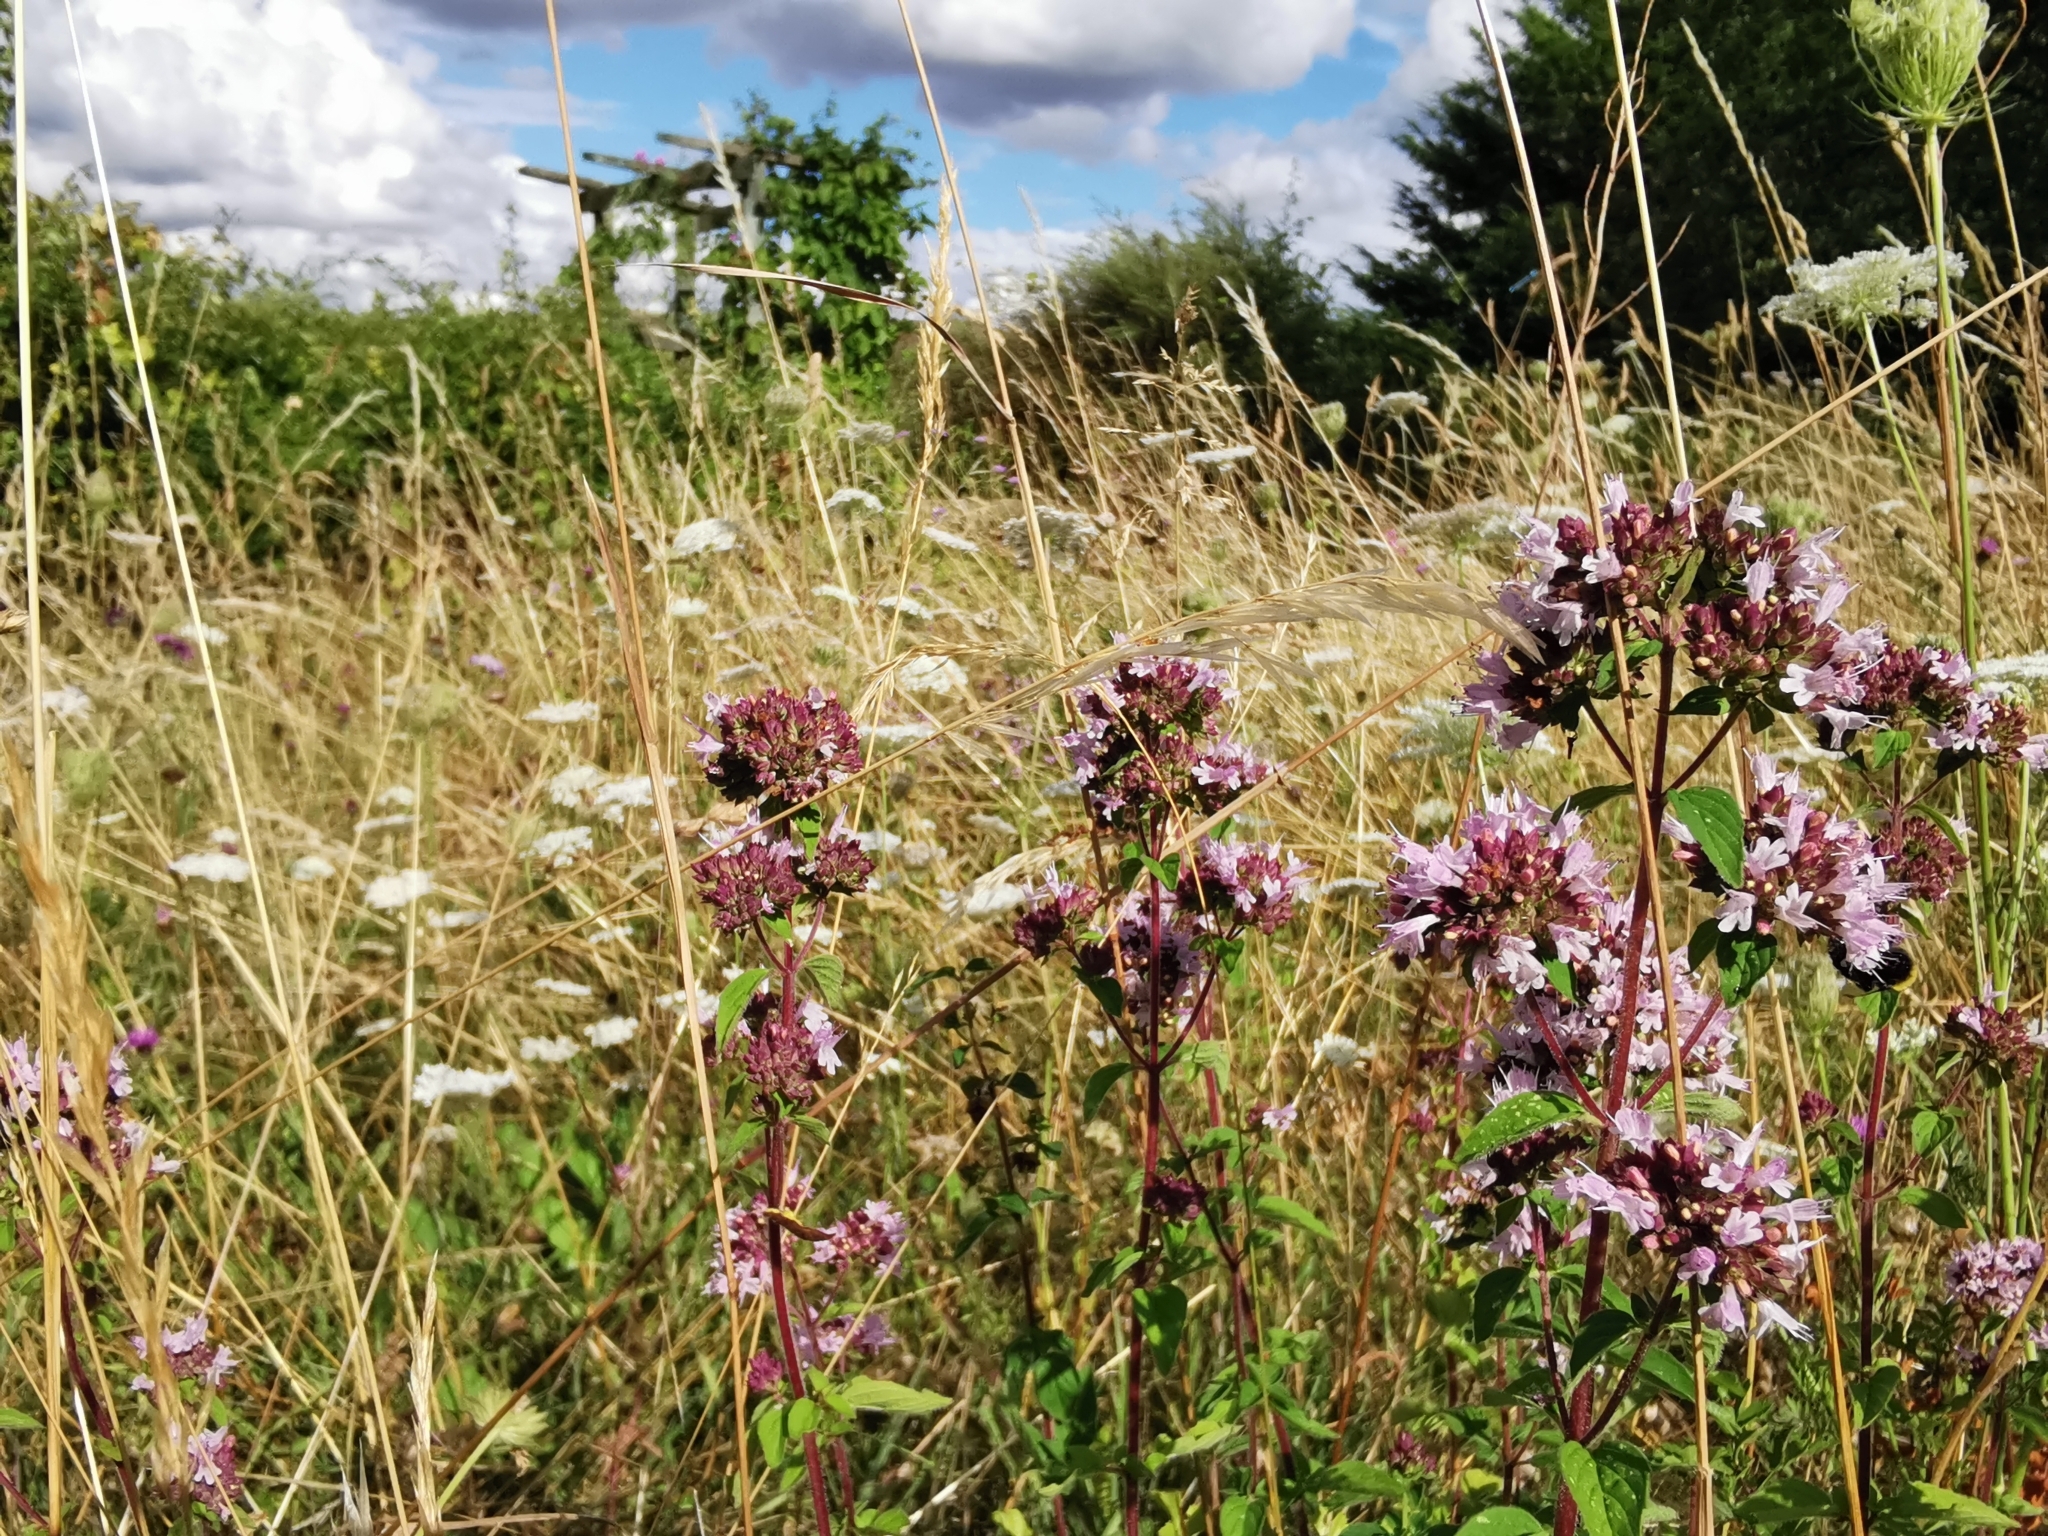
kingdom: Plantae
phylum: Tracheophyta
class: Magnoliopsida
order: Lamiales
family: Lamiaceae
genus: Origanum
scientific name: Origanum vulgare
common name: Wild marjoram
